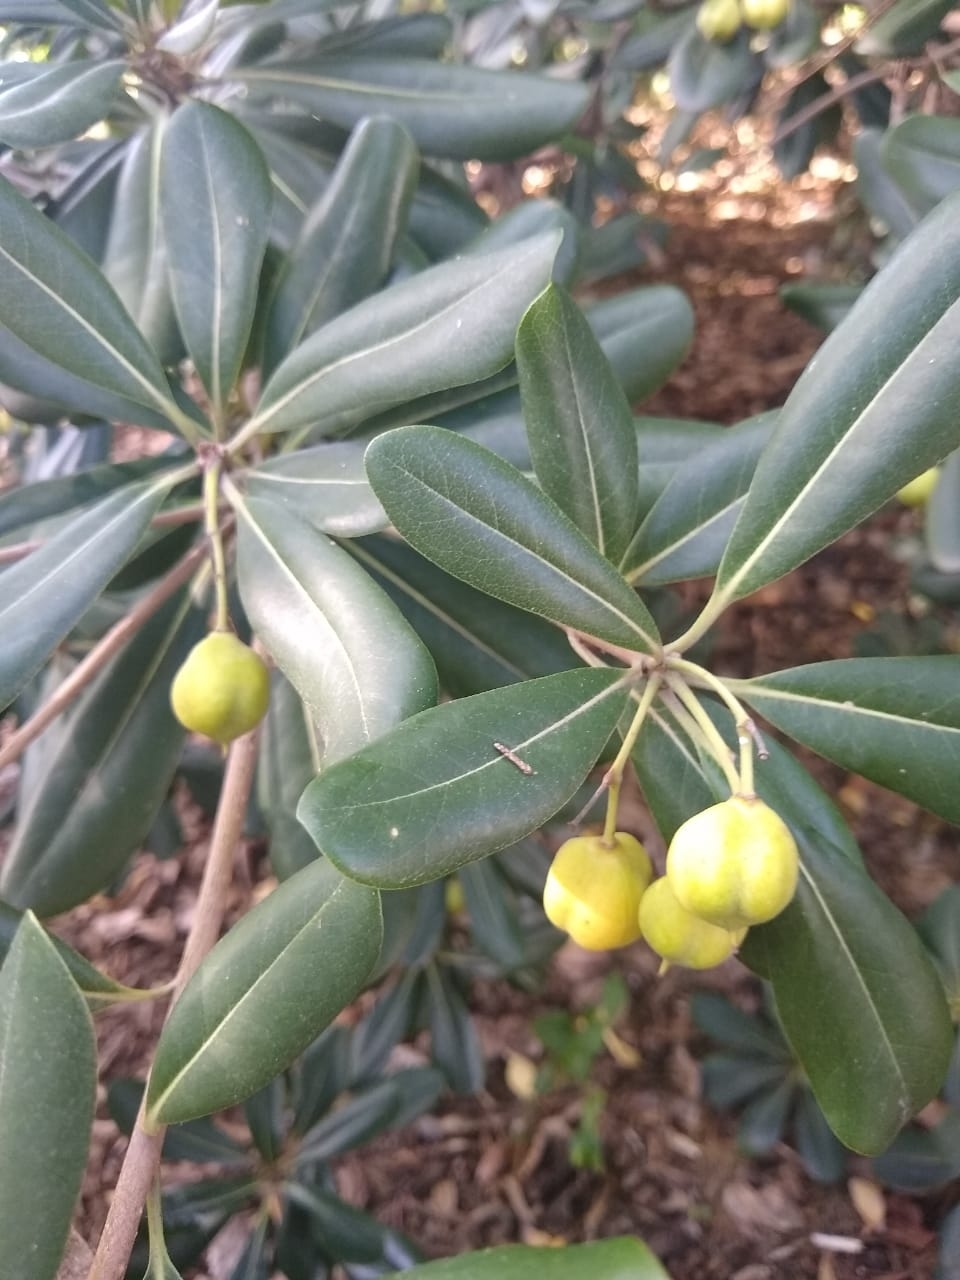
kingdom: Plantae
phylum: Tracheophyta
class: Magnoliopsida
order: Apiales
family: Pittosporaceae
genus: Pittosporum
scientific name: Pittosporum tobira
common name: Japanese cheesewood
